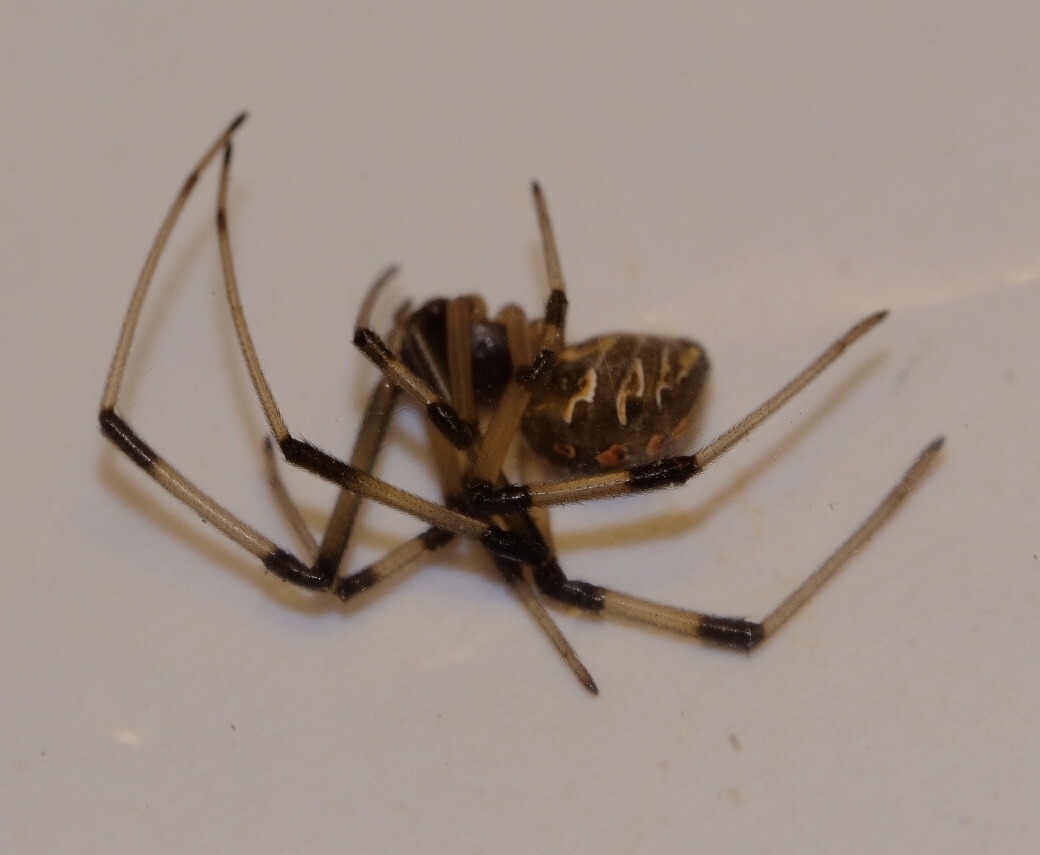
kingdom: Animalia
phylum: Arthropoda
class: Arachnida
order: Araneae
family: Theridiidae
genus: Latrodectus
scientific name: Latrodectus geometricus
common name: Brown widow spider
